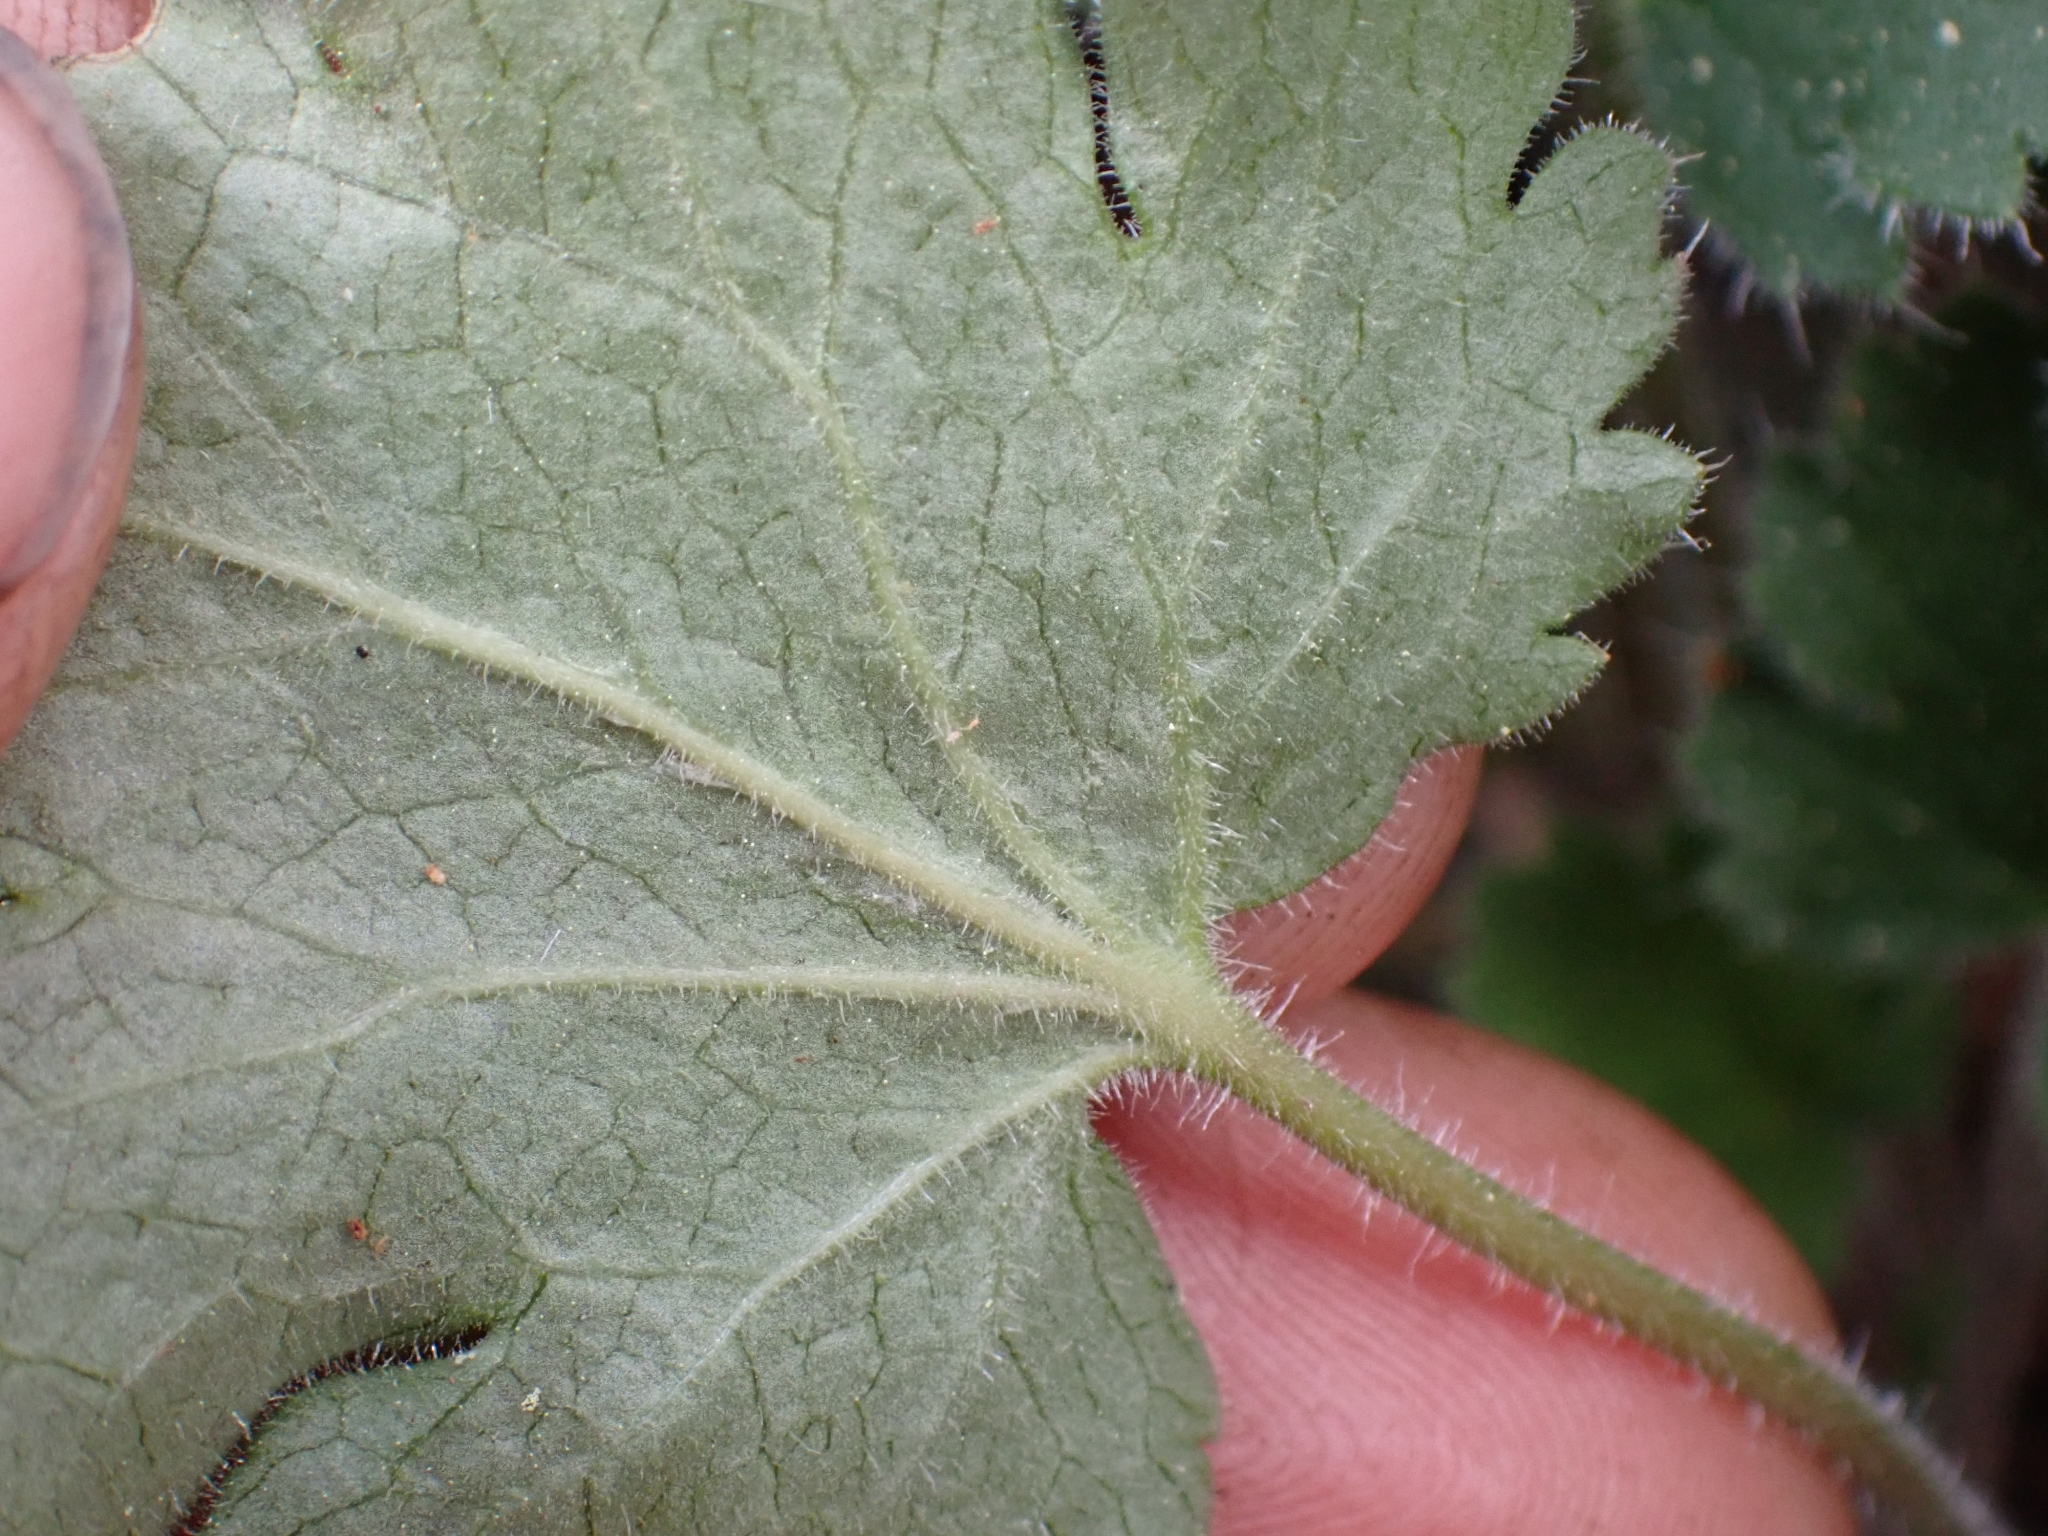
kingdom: Plantae
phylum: Tracheophyta
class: Magnoliopsida
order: Saxifragales
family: Saxifragaceae
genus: Heuchera
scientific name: Heuchera cylindrica
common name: Mat alumroot
